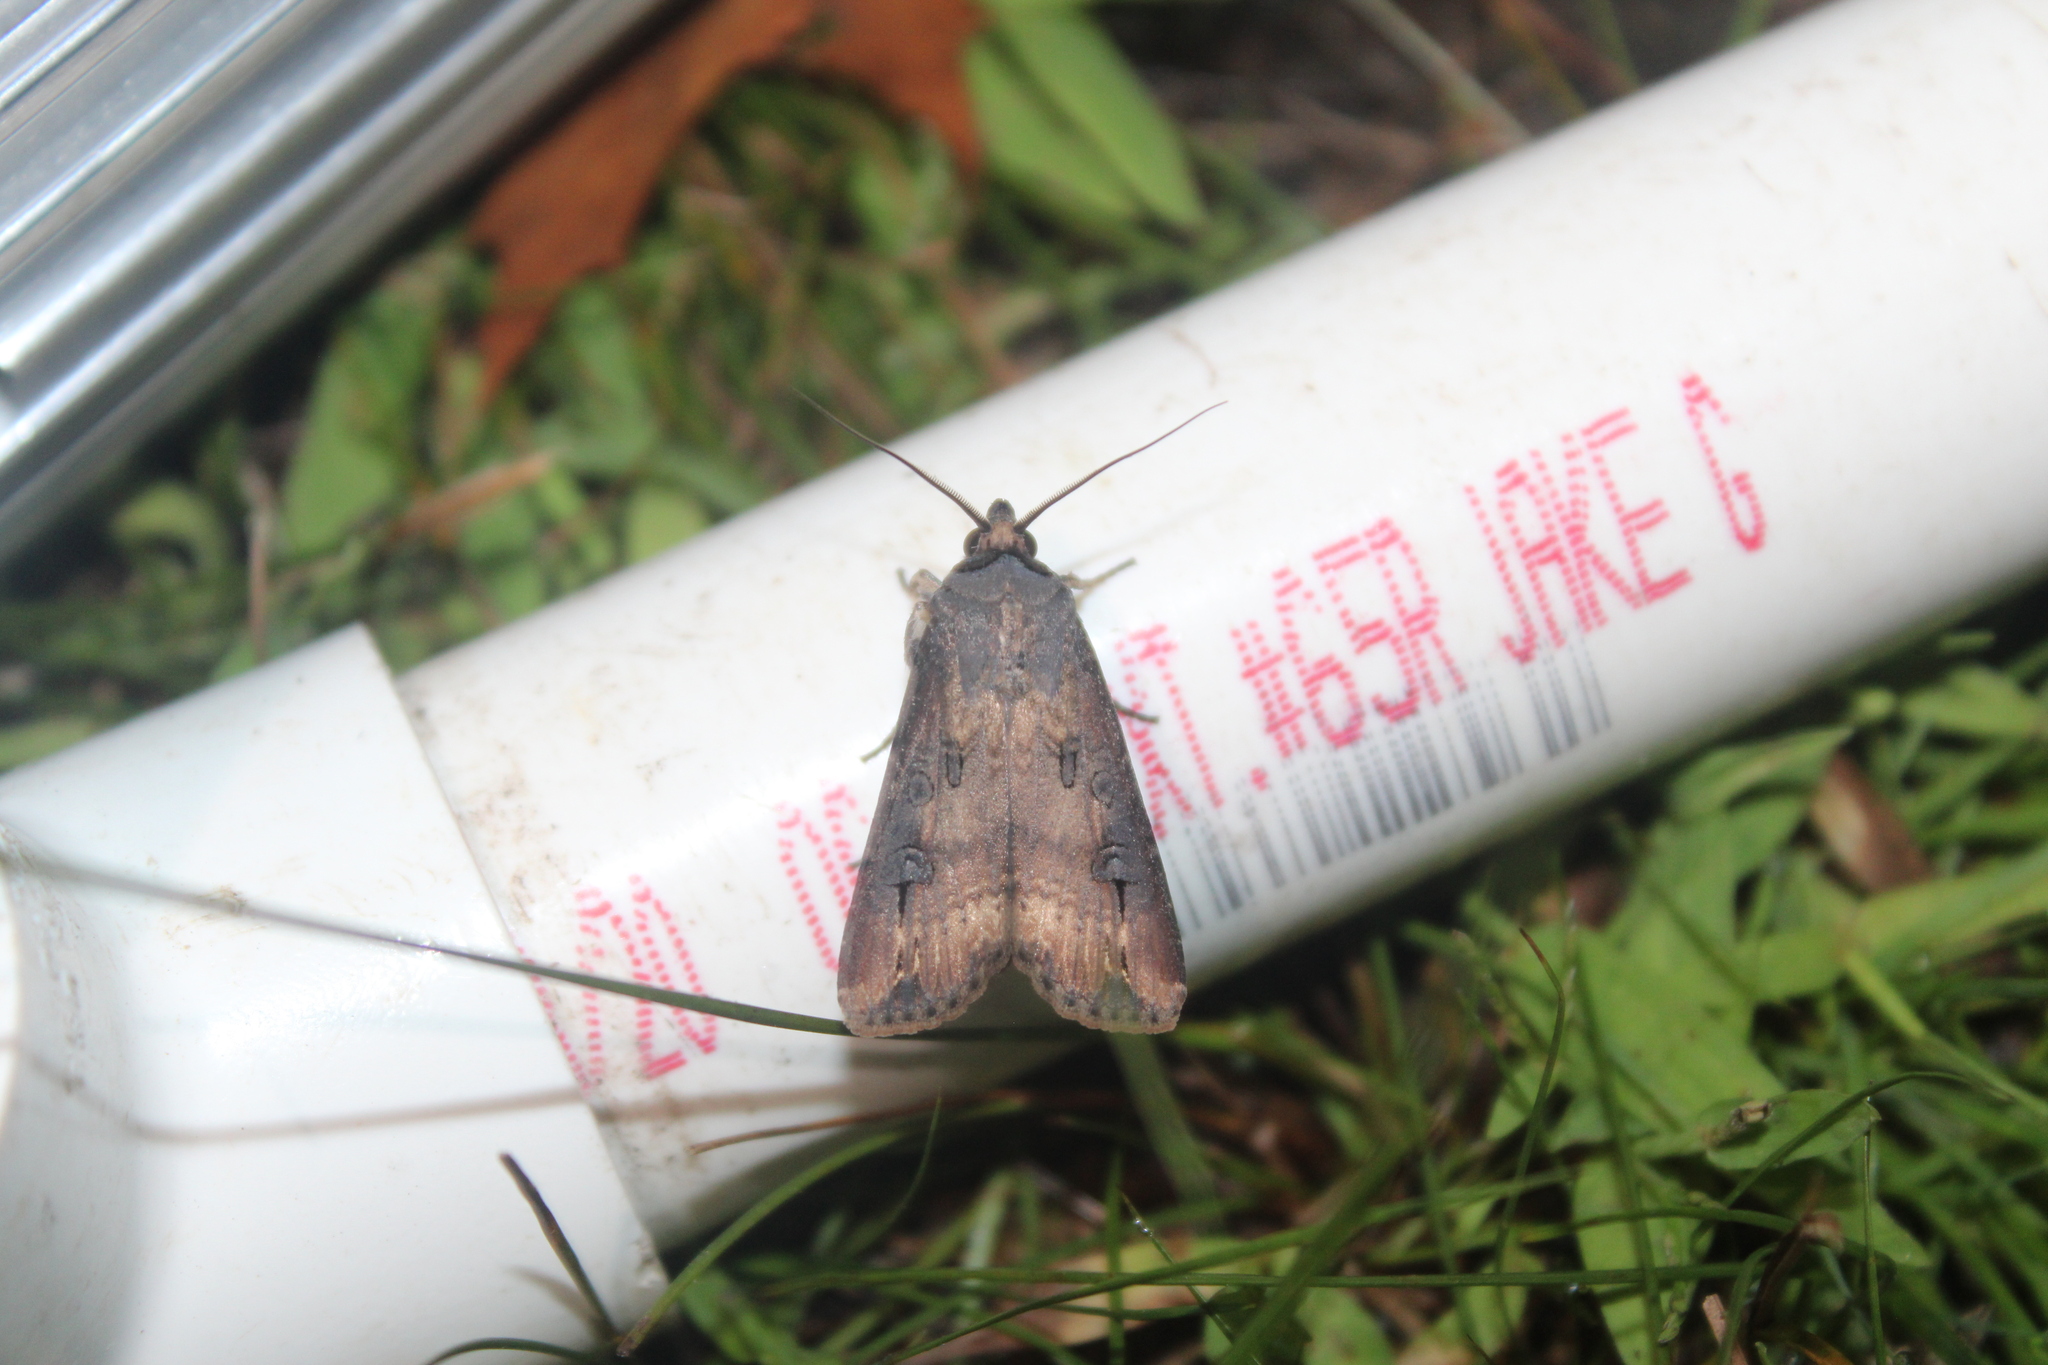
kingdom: Animalia
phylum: Arthropoda
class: Insecta
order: Lepidoptera
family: Noctuidae
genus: Agrotis
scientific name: Agrotis ipsilon
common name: Dark sword-grass
